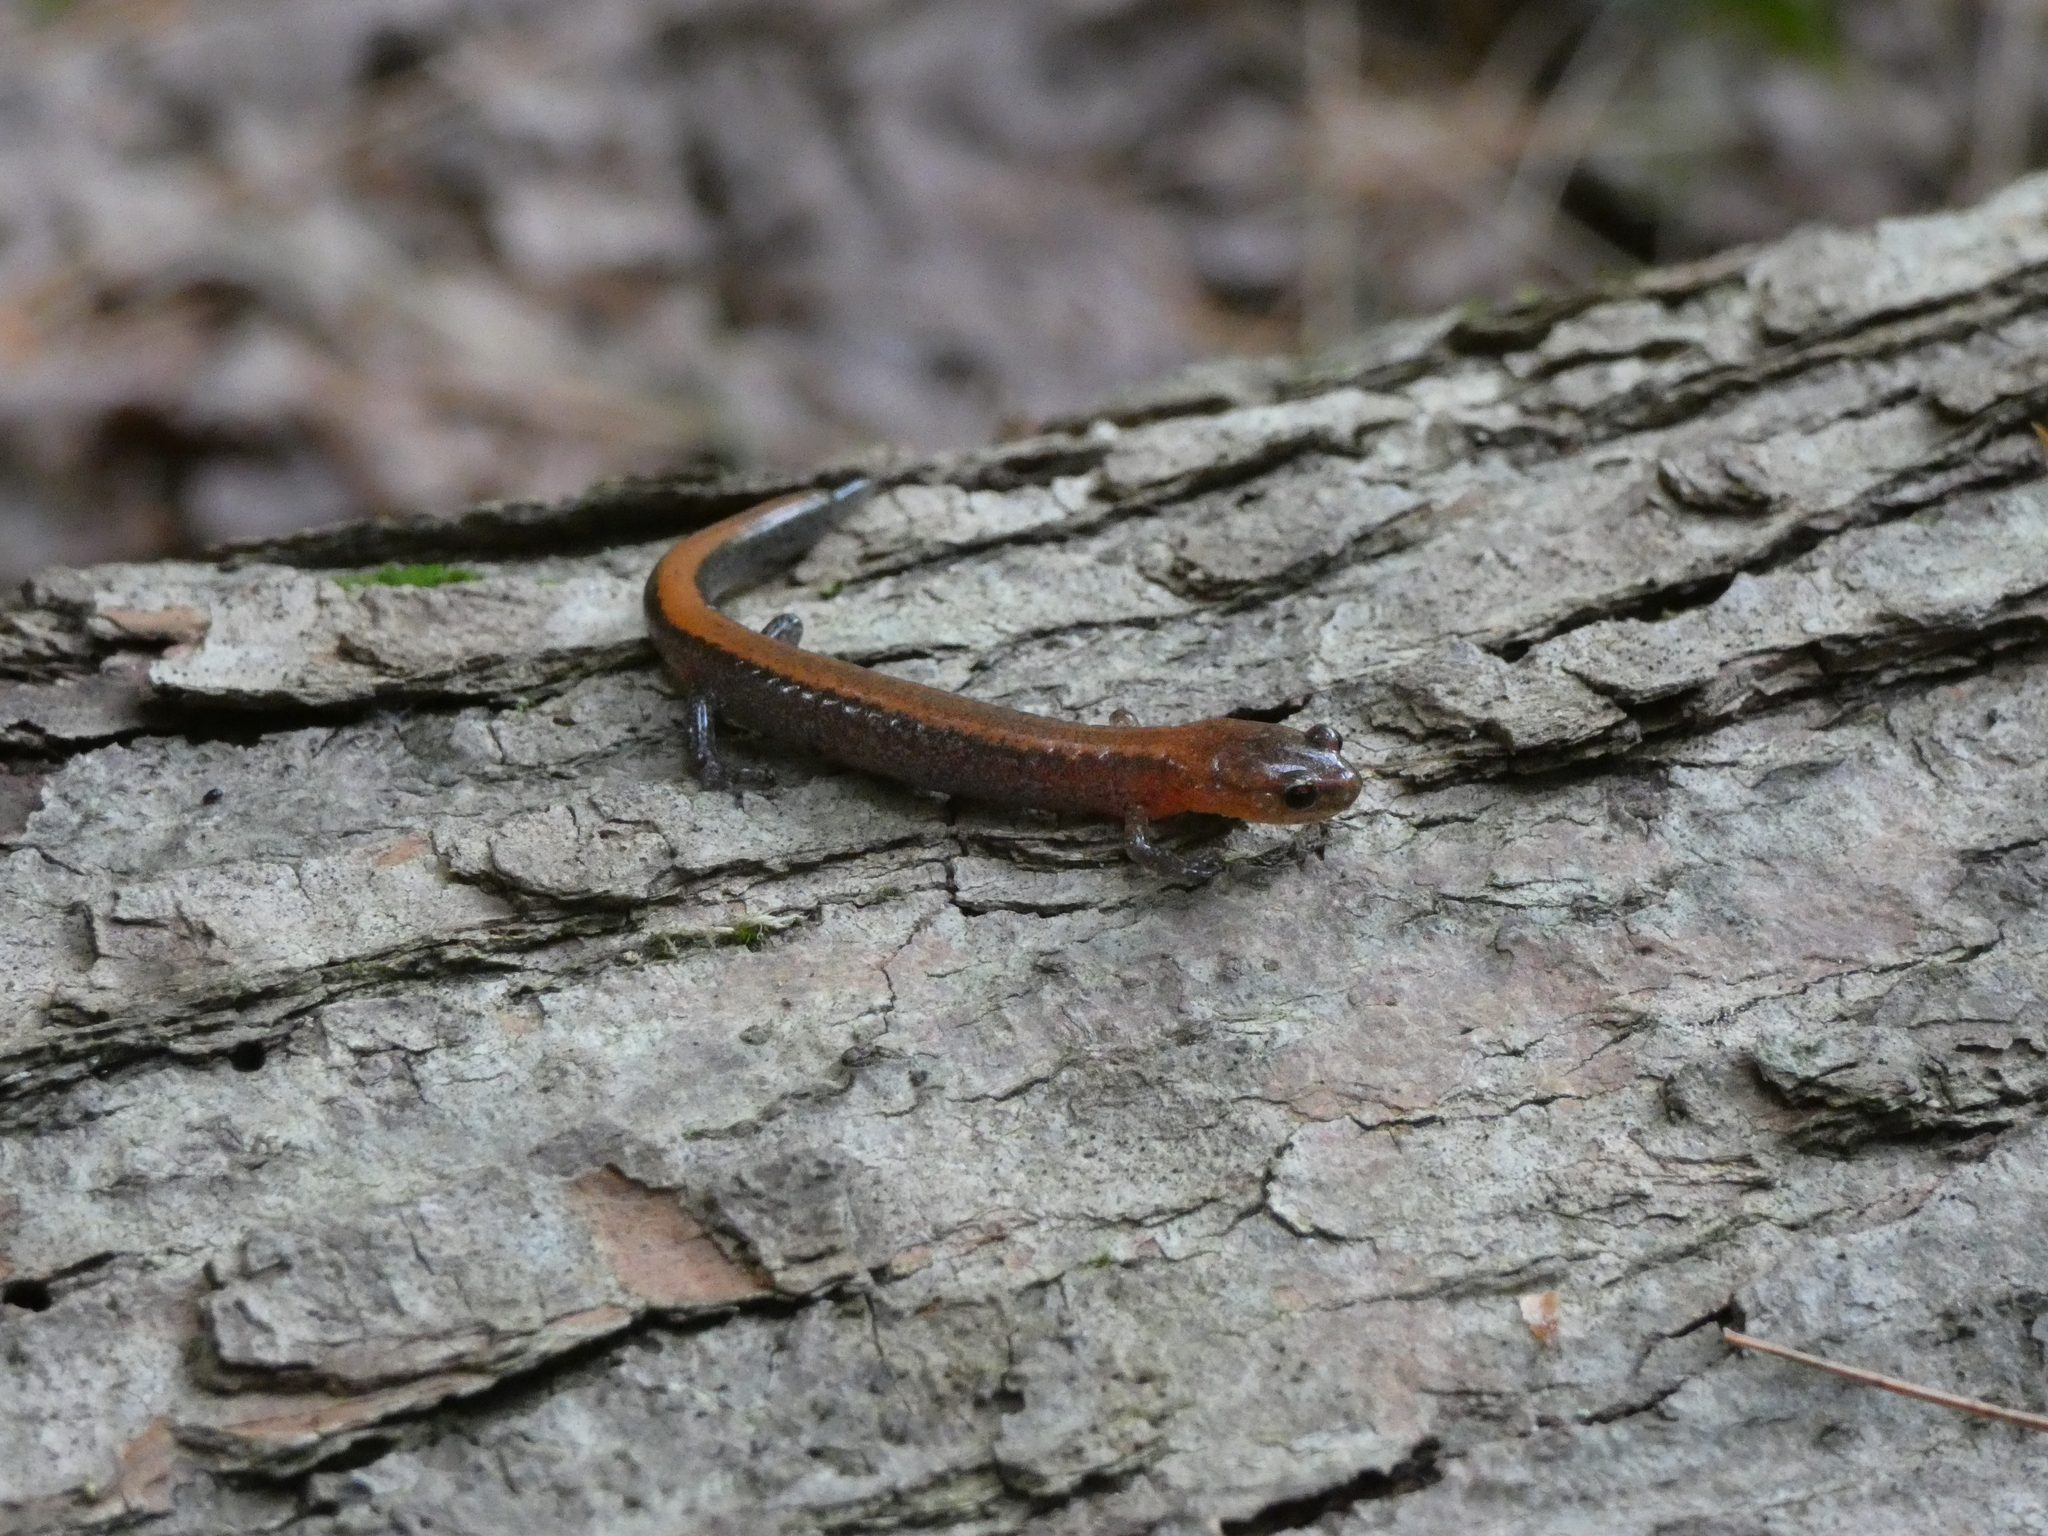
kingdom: Animalia
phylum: Chordata
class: Amphibia
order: Caudata
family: Plethodontidae
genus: Plethodon
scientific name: Plethodon cinereus
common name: Redback salamander
